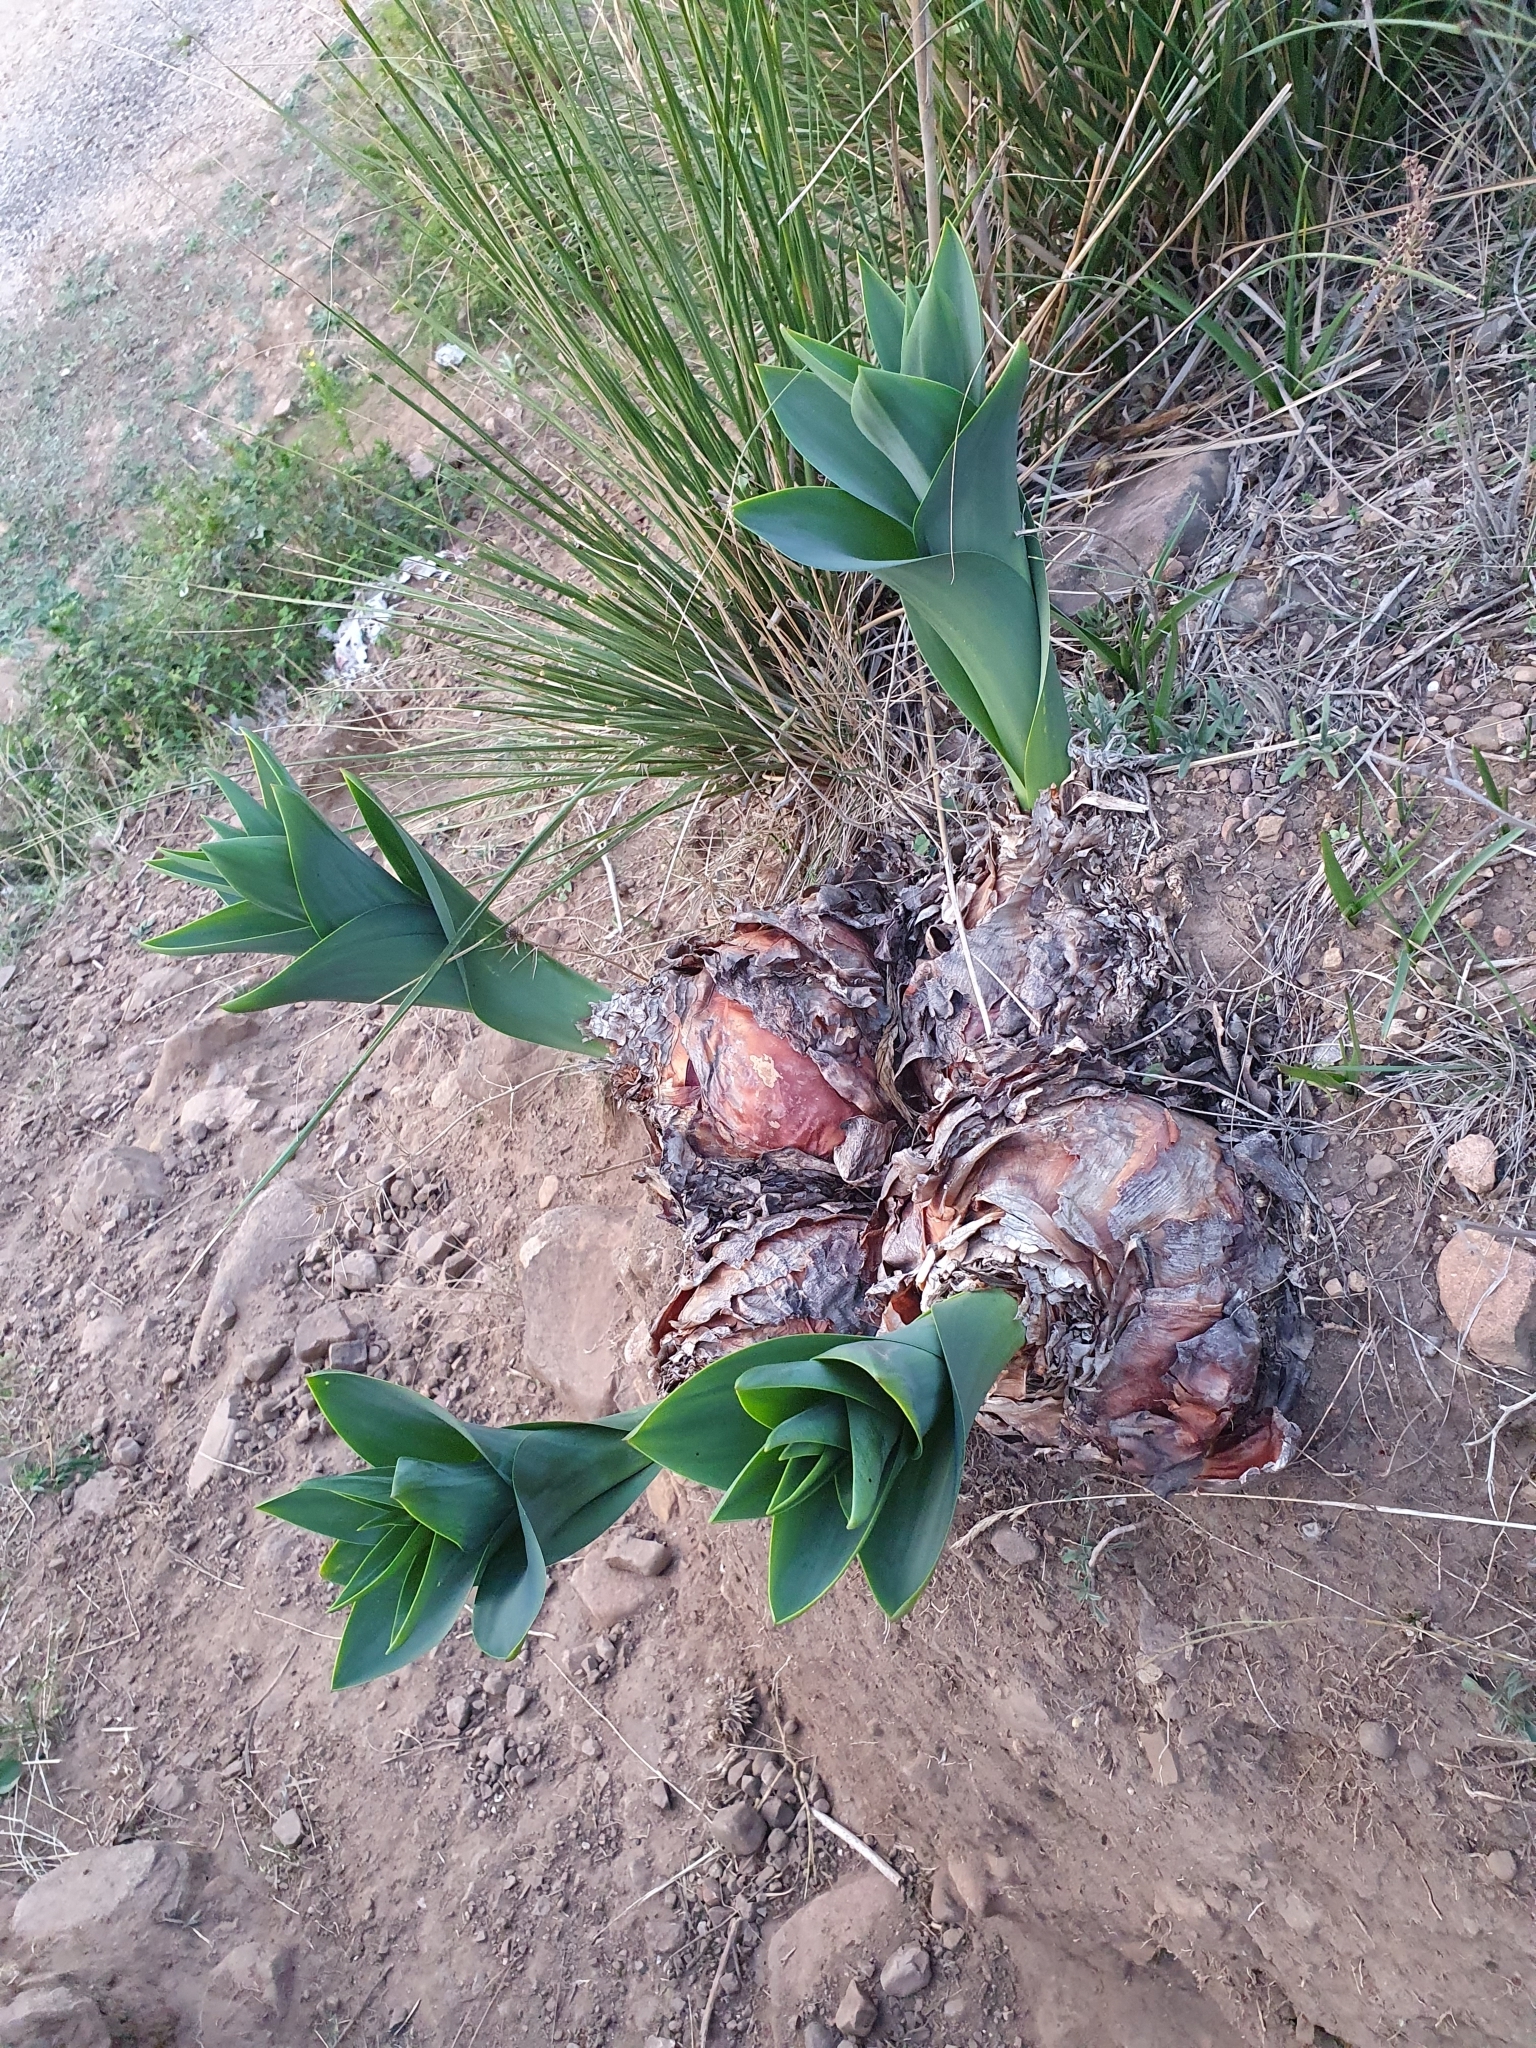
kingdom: Plantae
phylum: Tracheophyta
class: Liliopsida
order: Asparagales
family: Asparagaceae
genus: Drimia
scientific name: Drimia numidica
